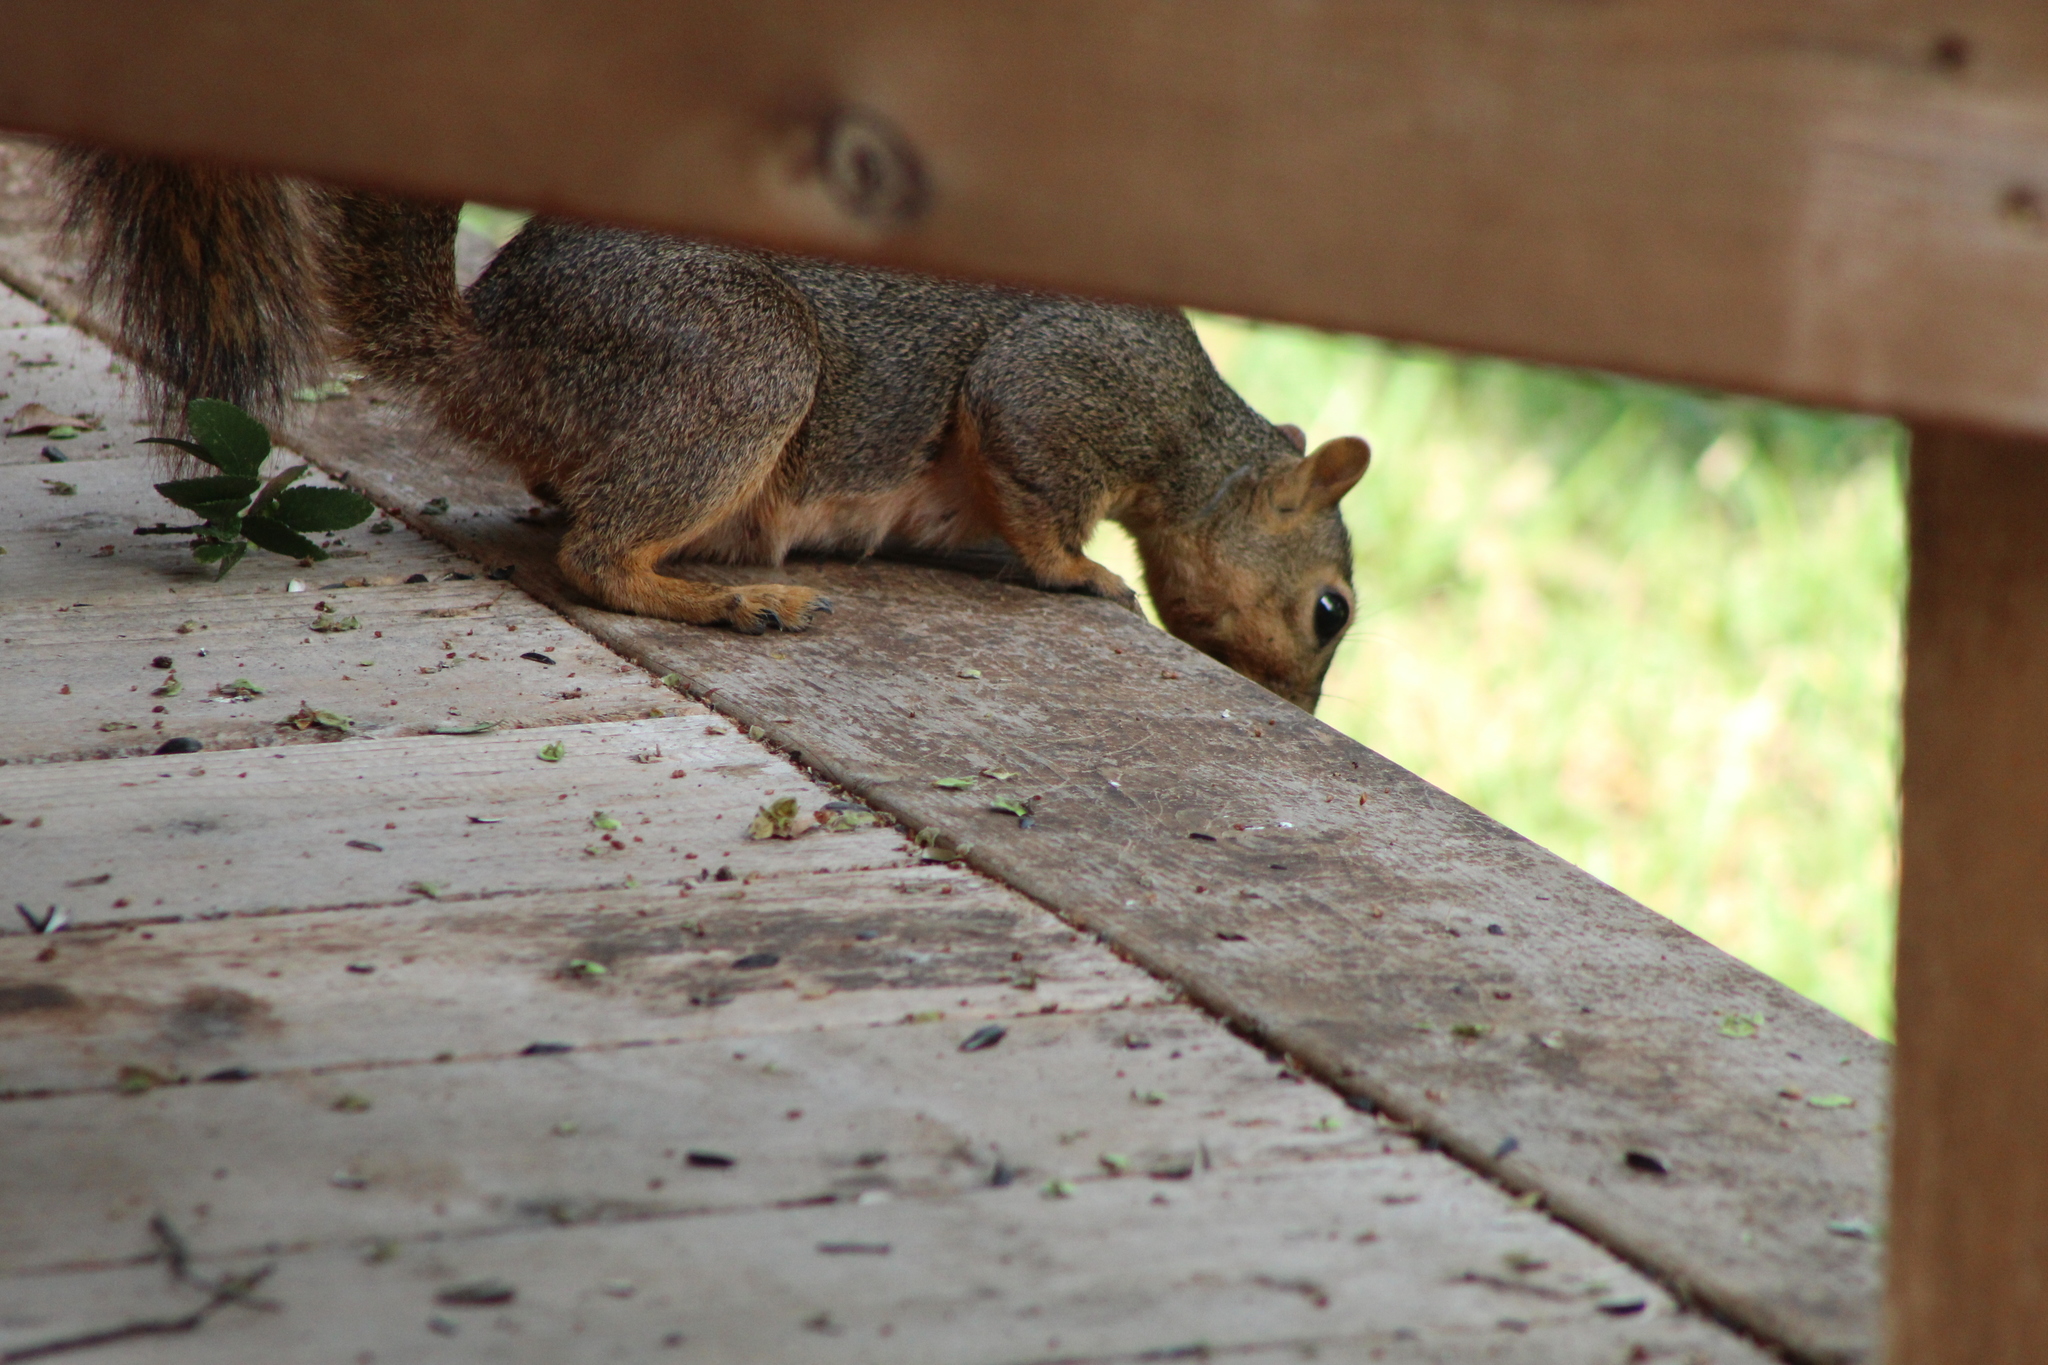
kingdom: Animalia
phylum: Chordata
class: Mammalia
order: Rodentia
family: Sciuridae
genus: Sciurus
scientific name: Sciurus niger
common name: Fox squirrel
